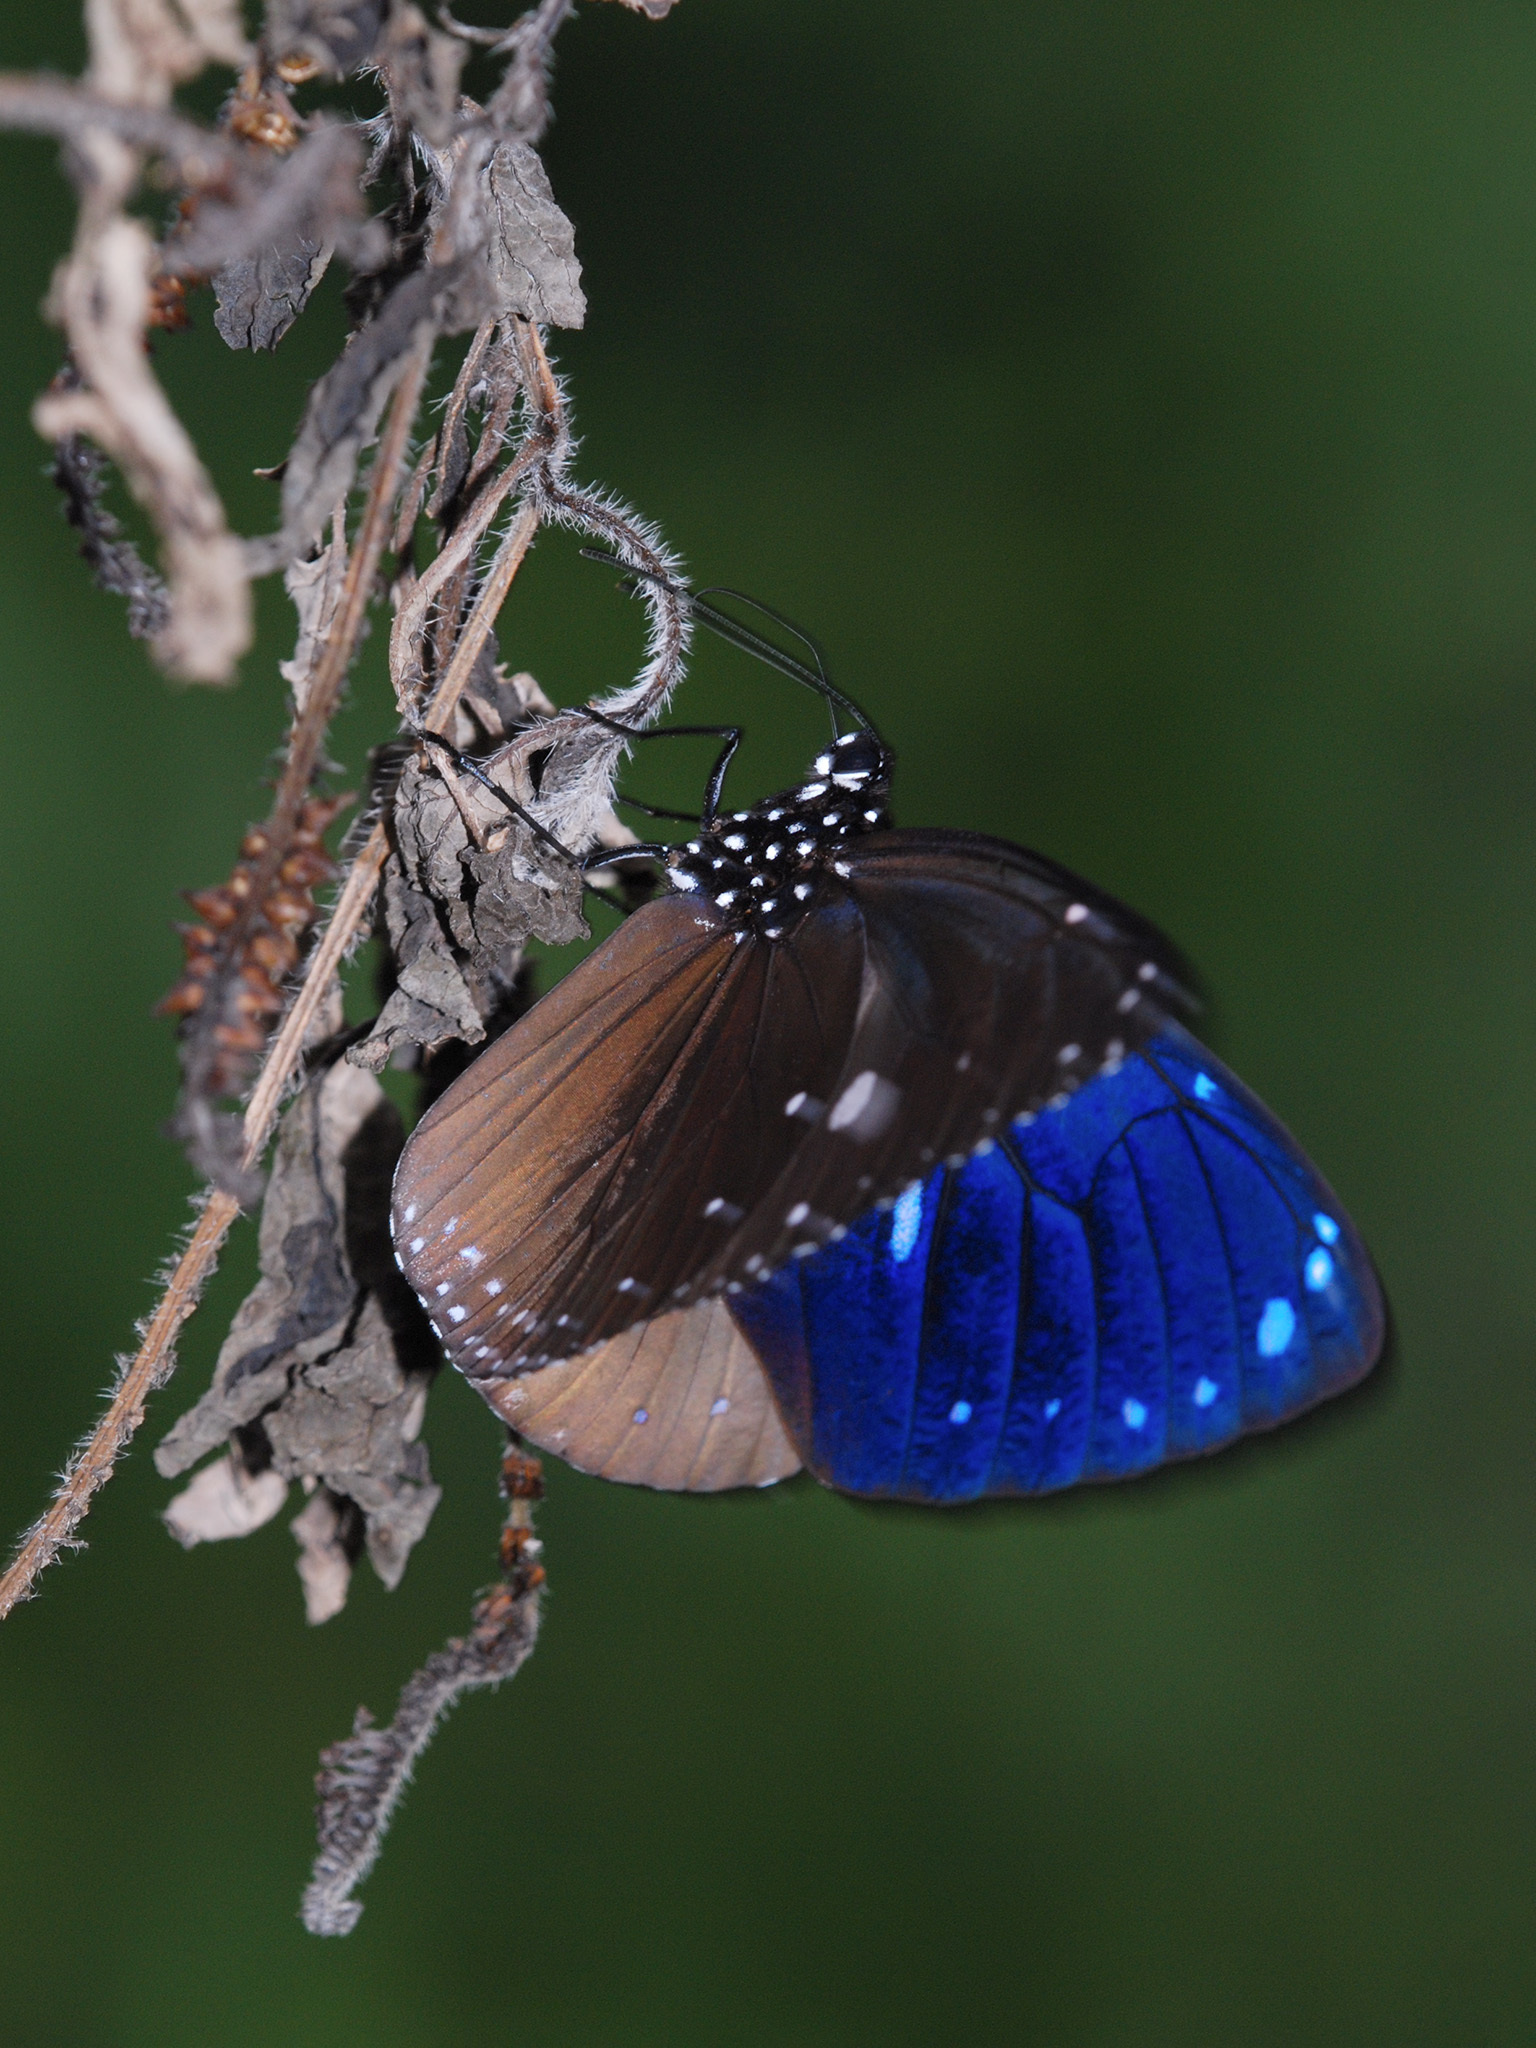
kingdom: Animalia
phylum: Arthropoda
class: Insecta
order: Lepidoptera
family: Nymphalidae
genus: Euploea
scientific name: Euploea eunice
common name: Blue-banded king crow butterfly
